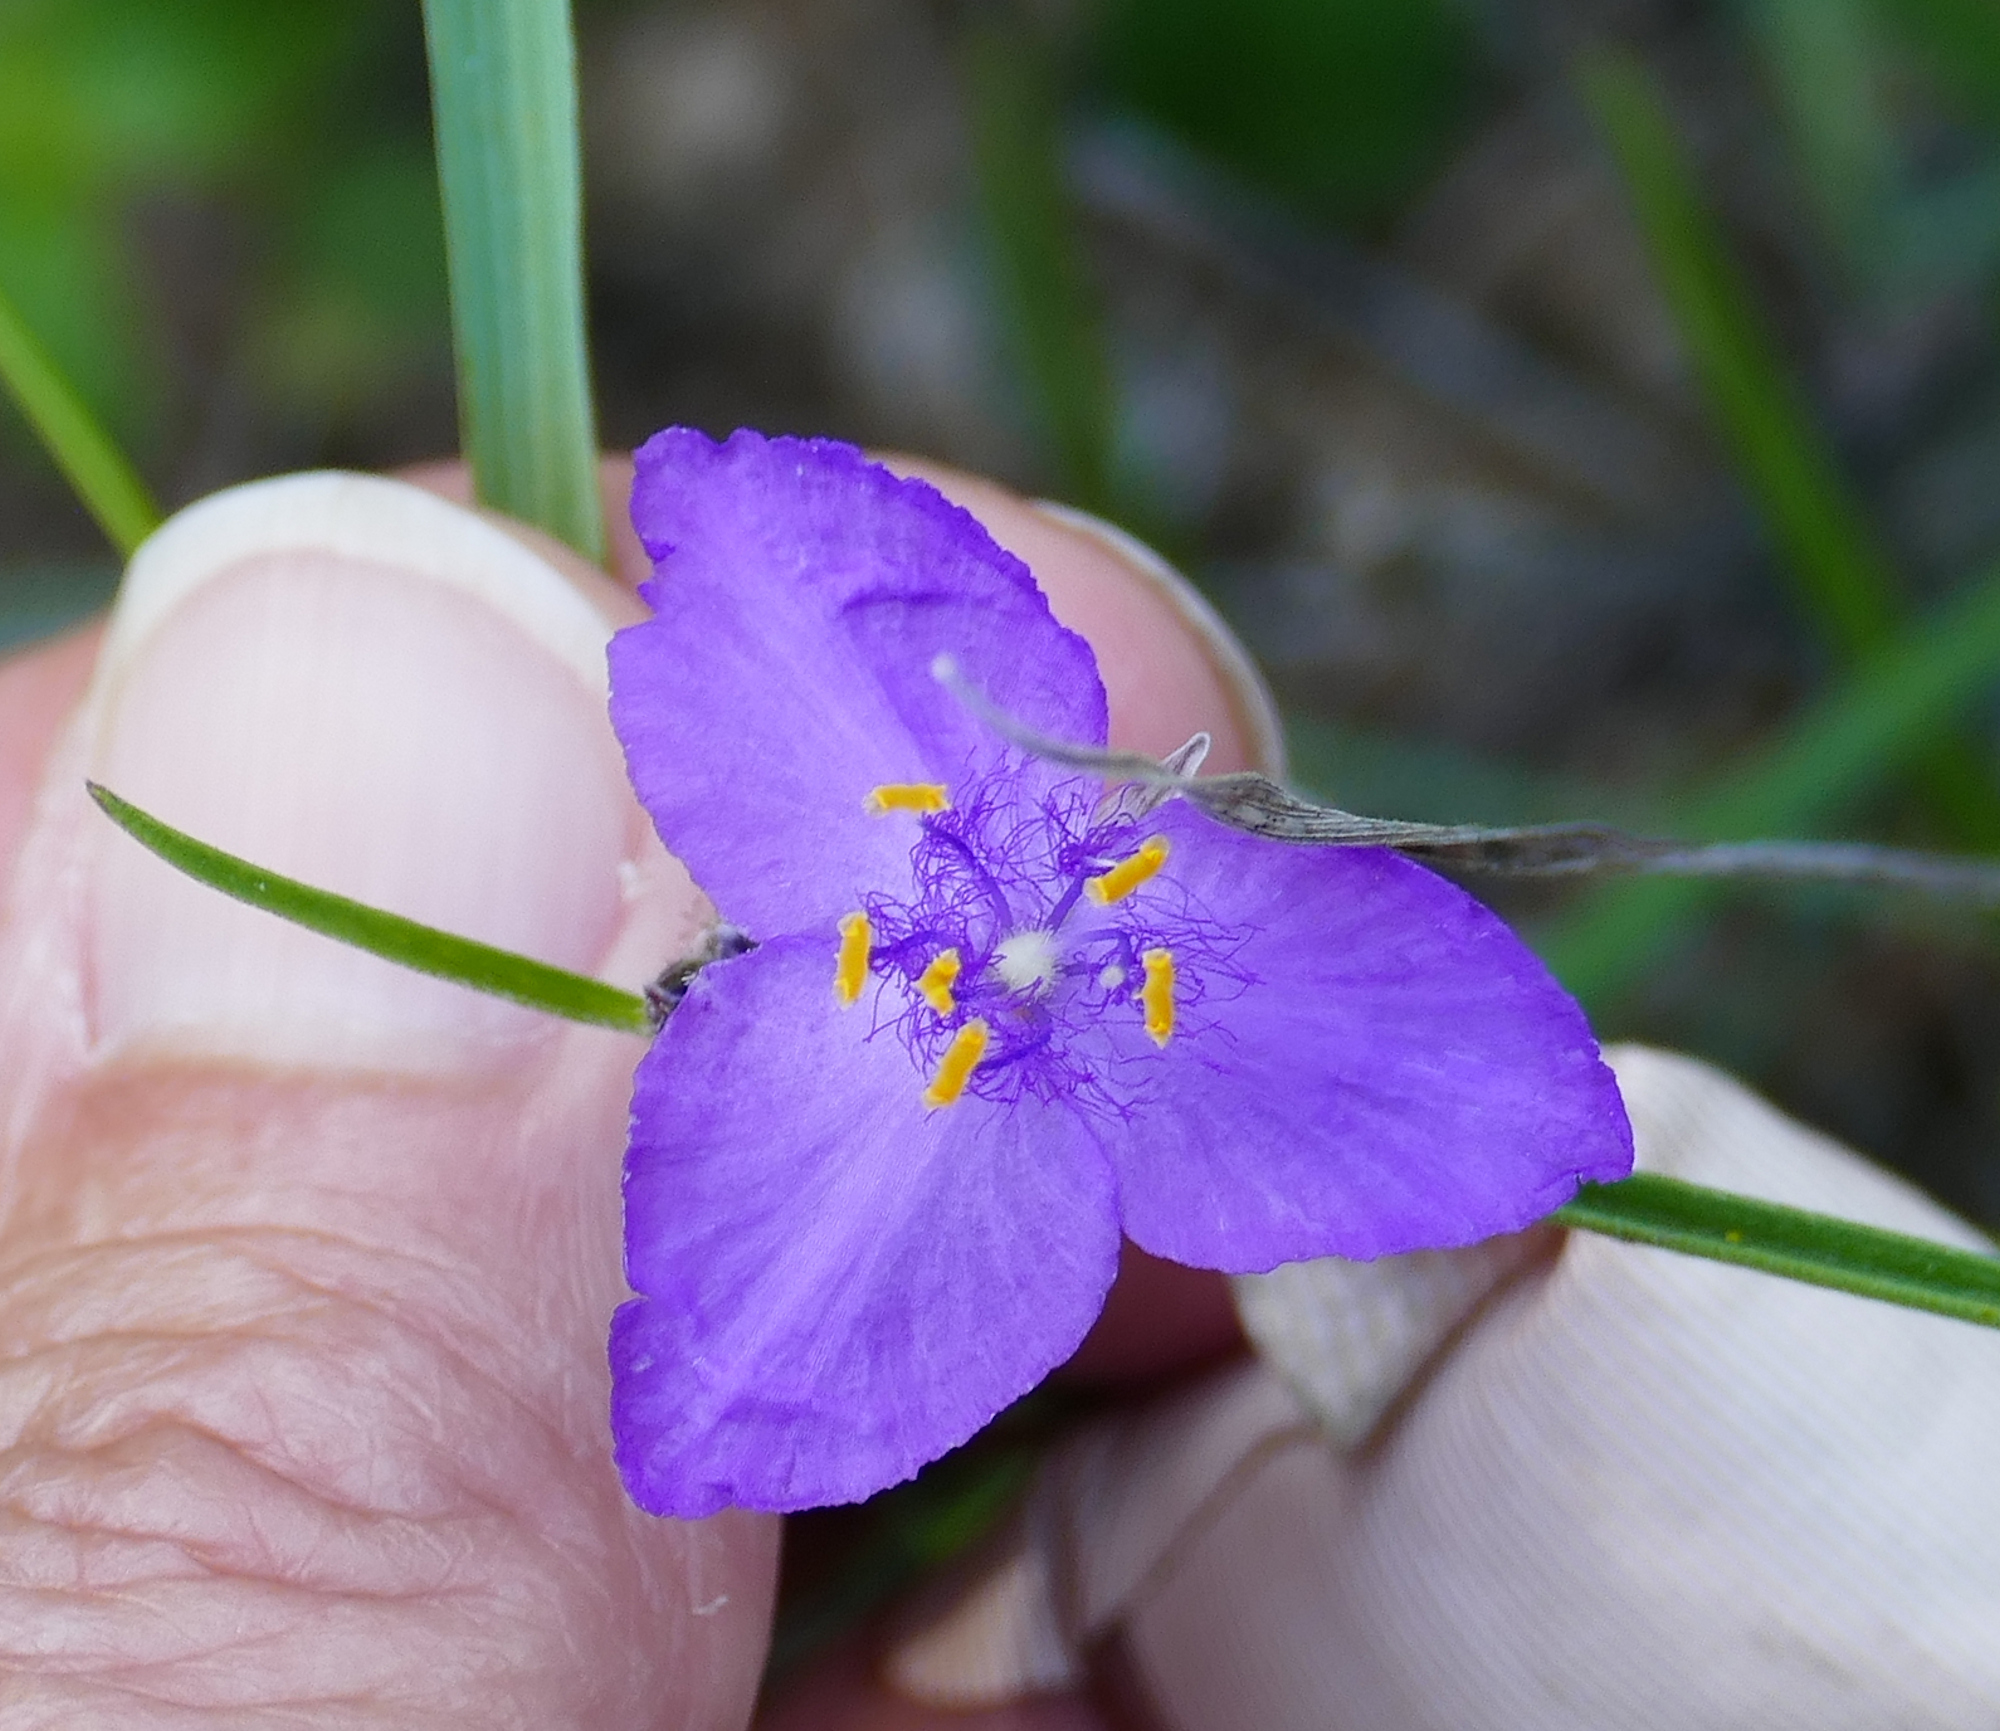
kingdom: Plantae
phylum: Tracheophyta
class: Liliopsida
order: Commelinales
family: Commelinaceae
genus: Tradescantia
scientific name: Tradescantia pinetorum
